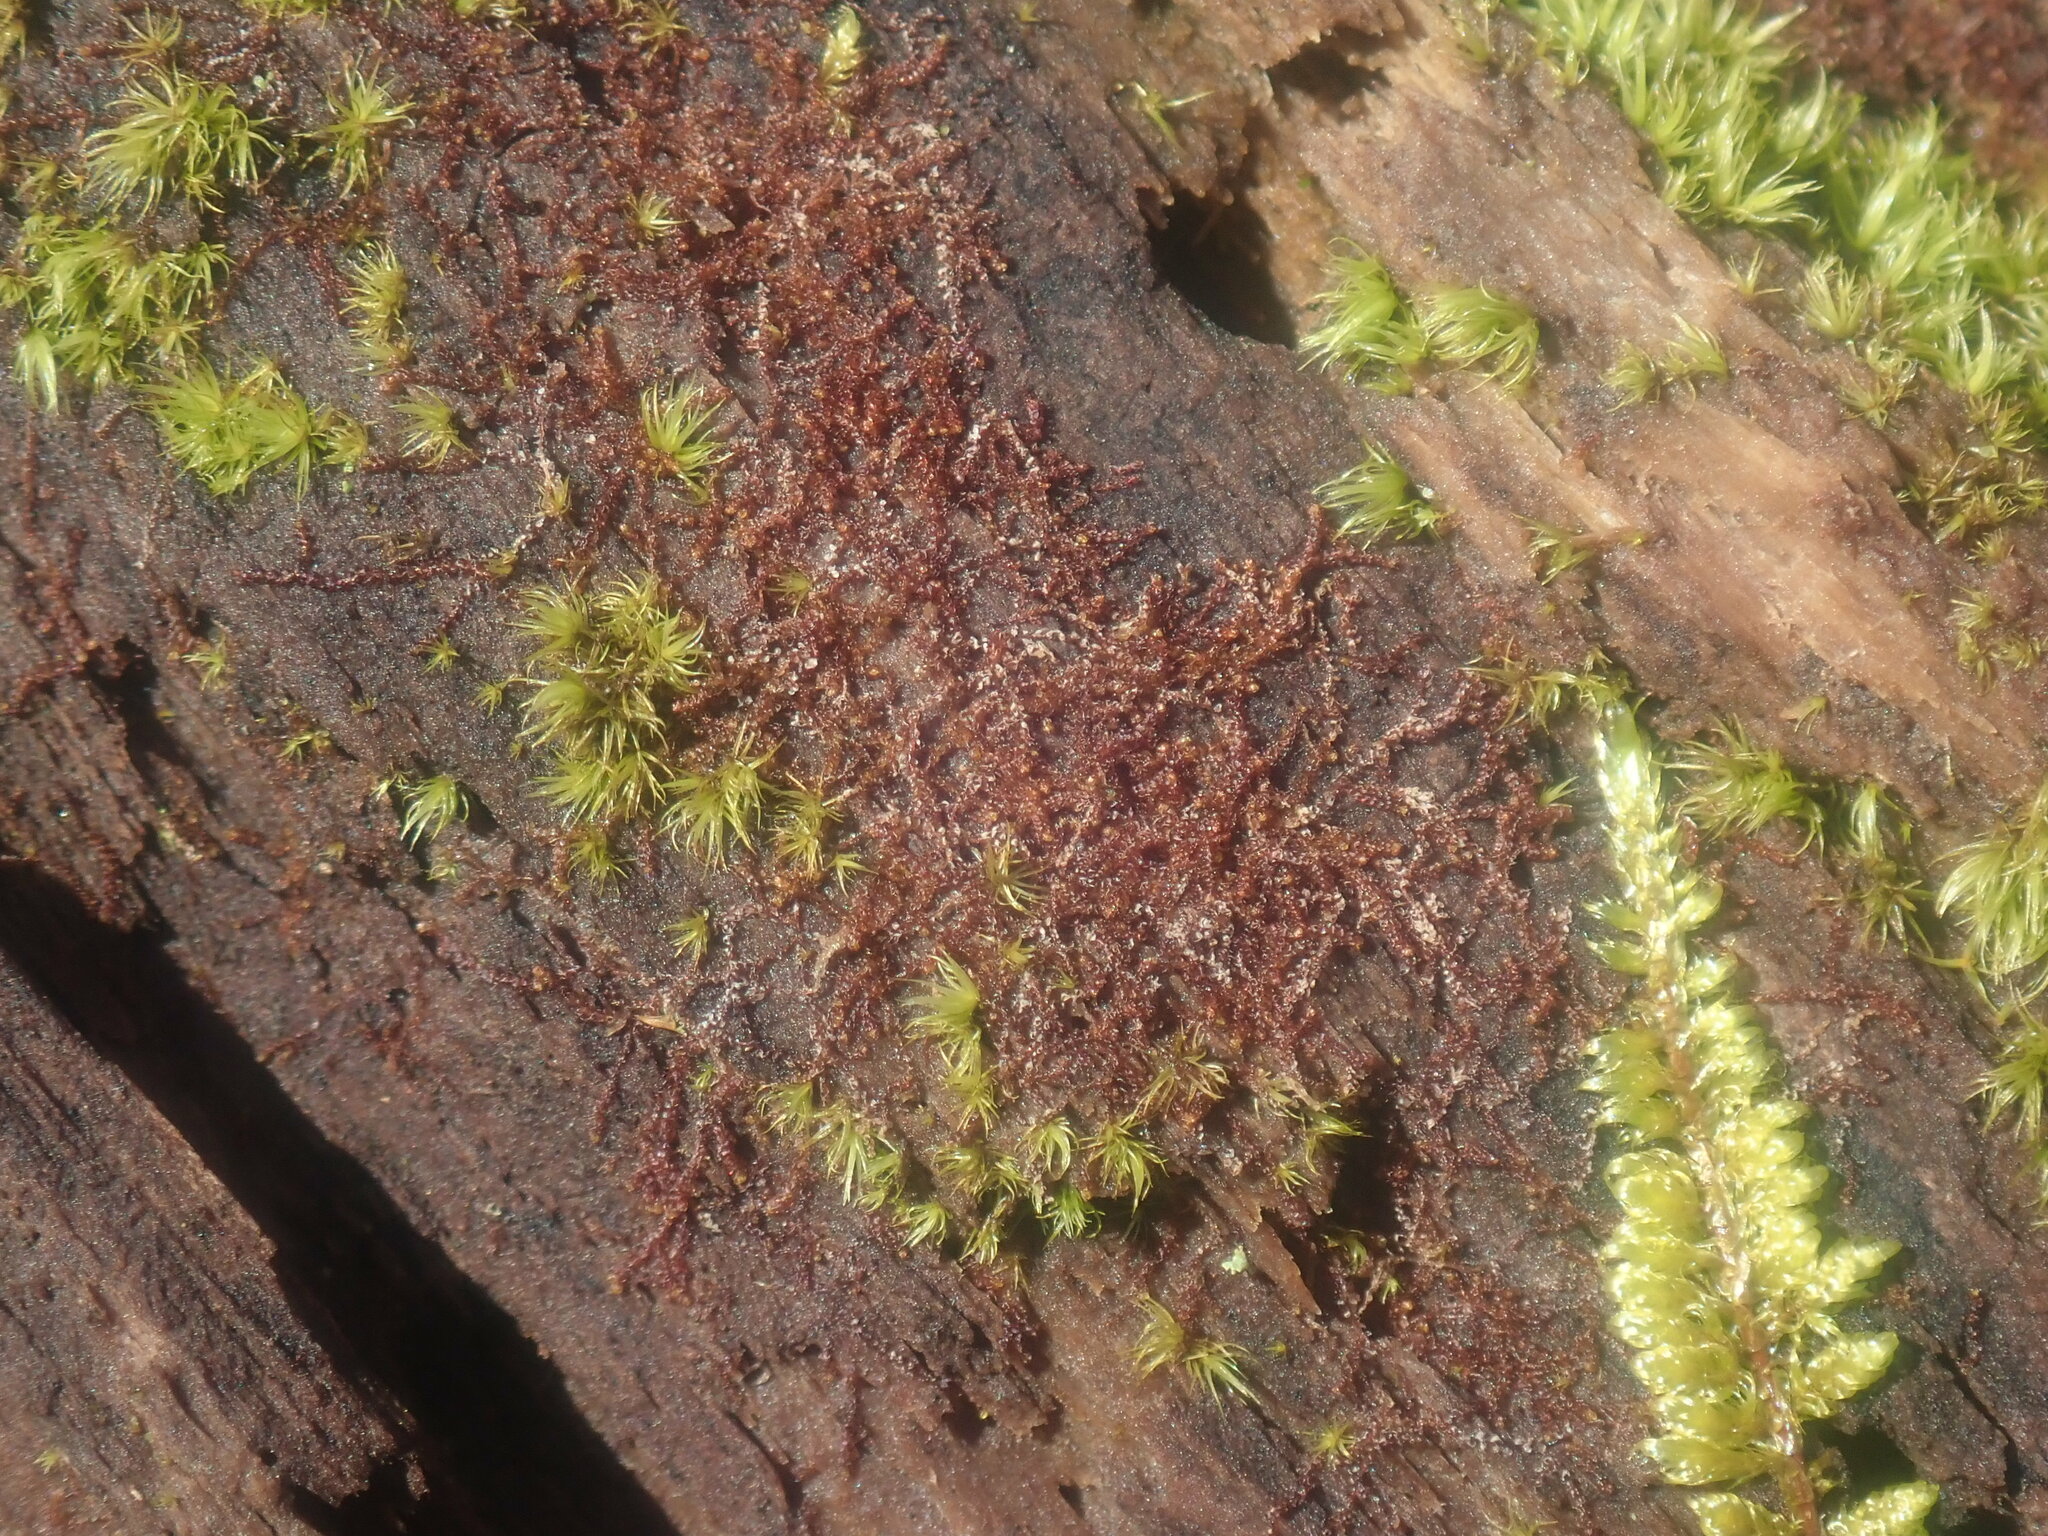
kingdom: Plantae
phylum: Marchantiophyta
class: Jungermanniopsida
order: Jungermanniales
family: Cephaloziaceae
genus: Nowellia
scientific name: Nowellia curvifolia
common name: Wood rustwort
